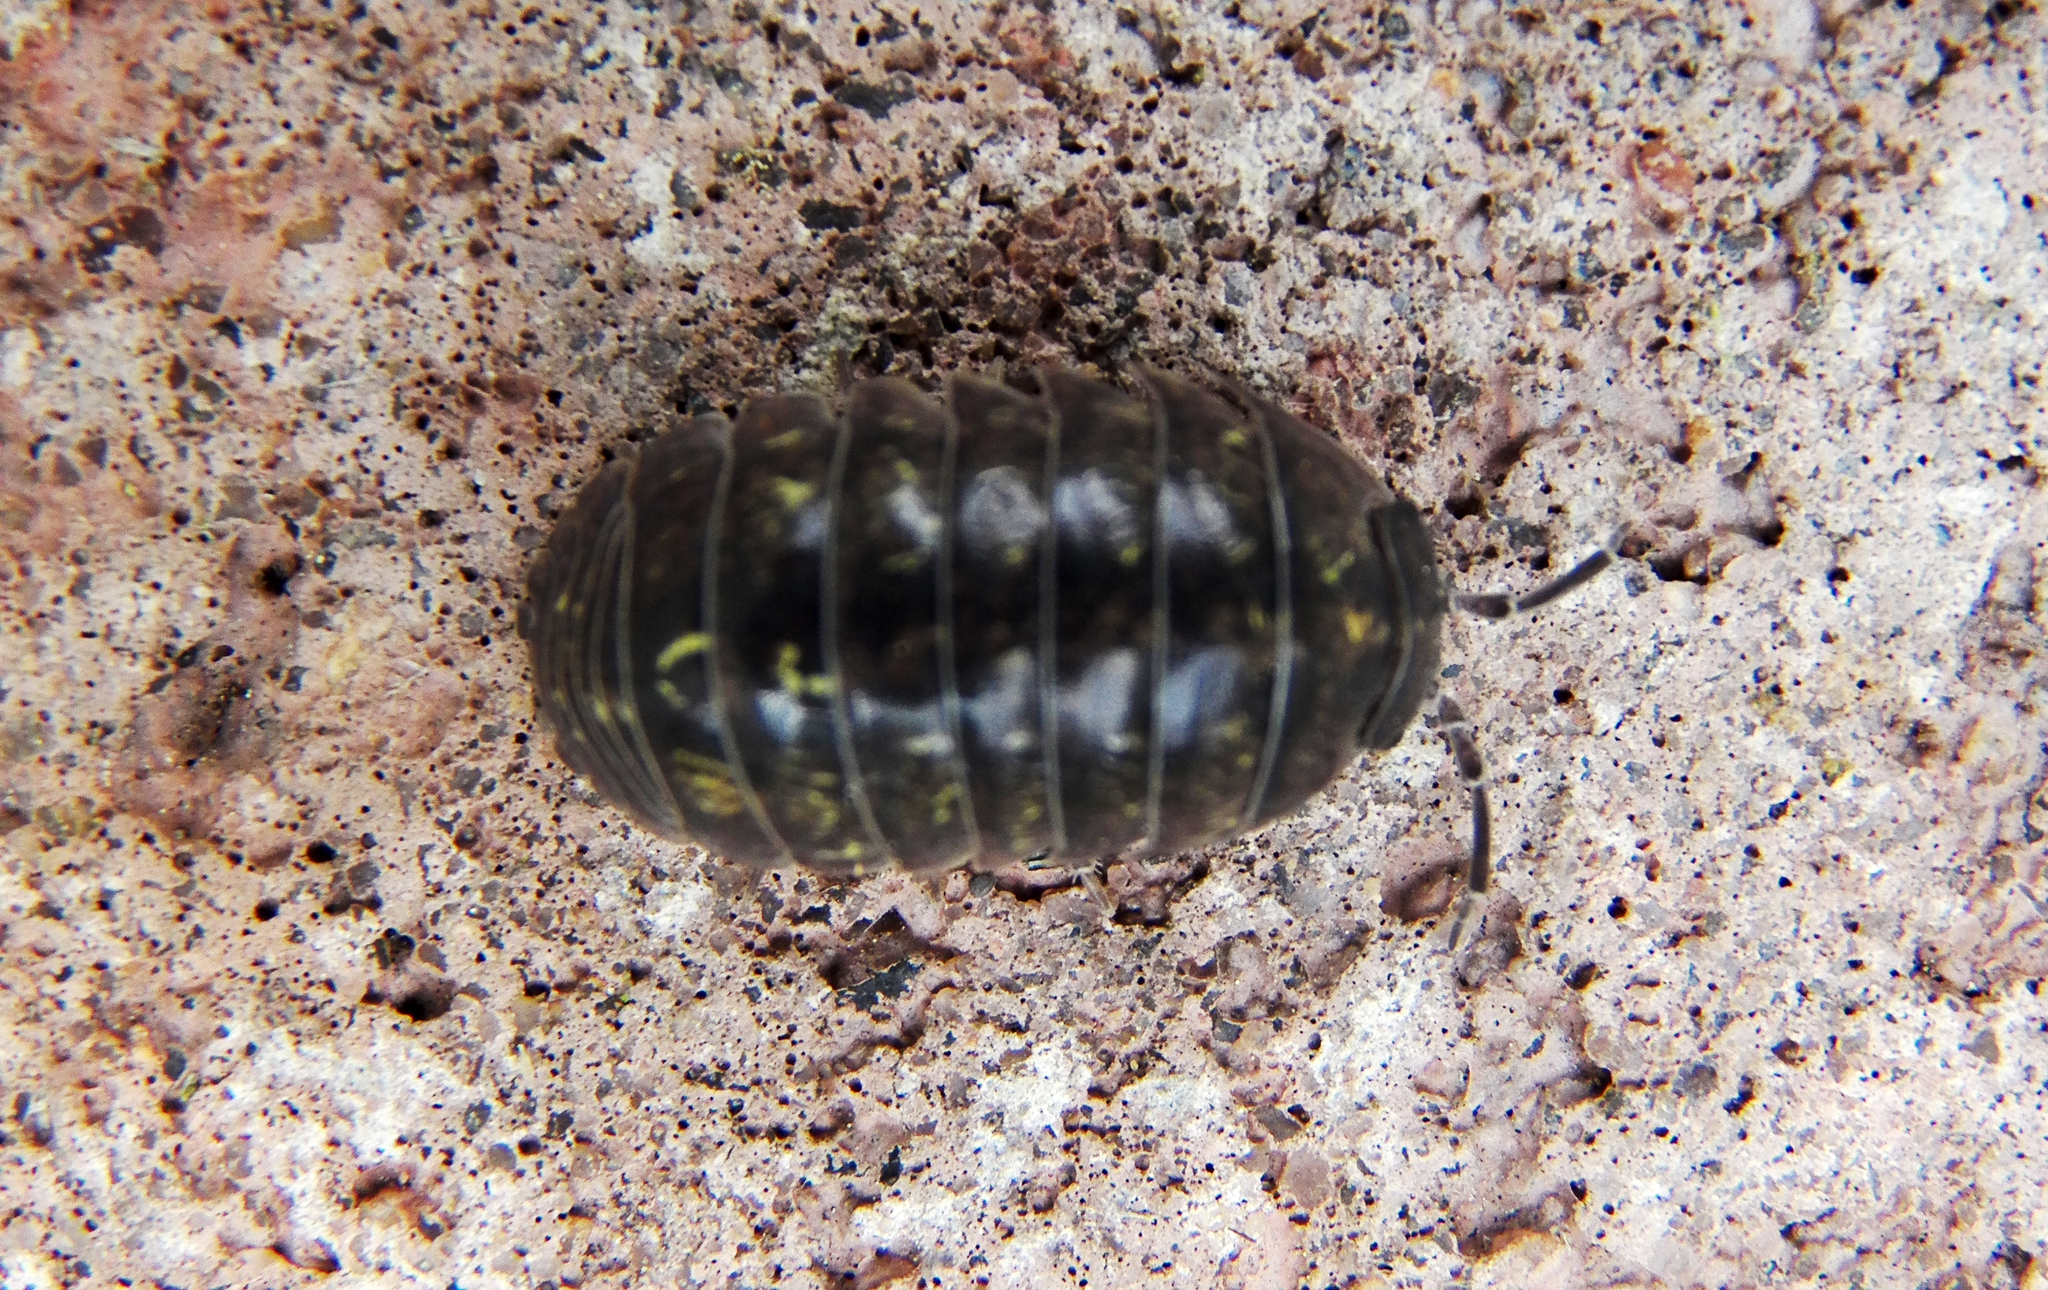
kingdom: Animalia
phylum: Arthropoda
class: Malacostraca
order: Isopoda
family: Armadillidiidae
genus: Armadillidium
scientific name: Armadillidium vulgare
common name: Common pill woodlouse
